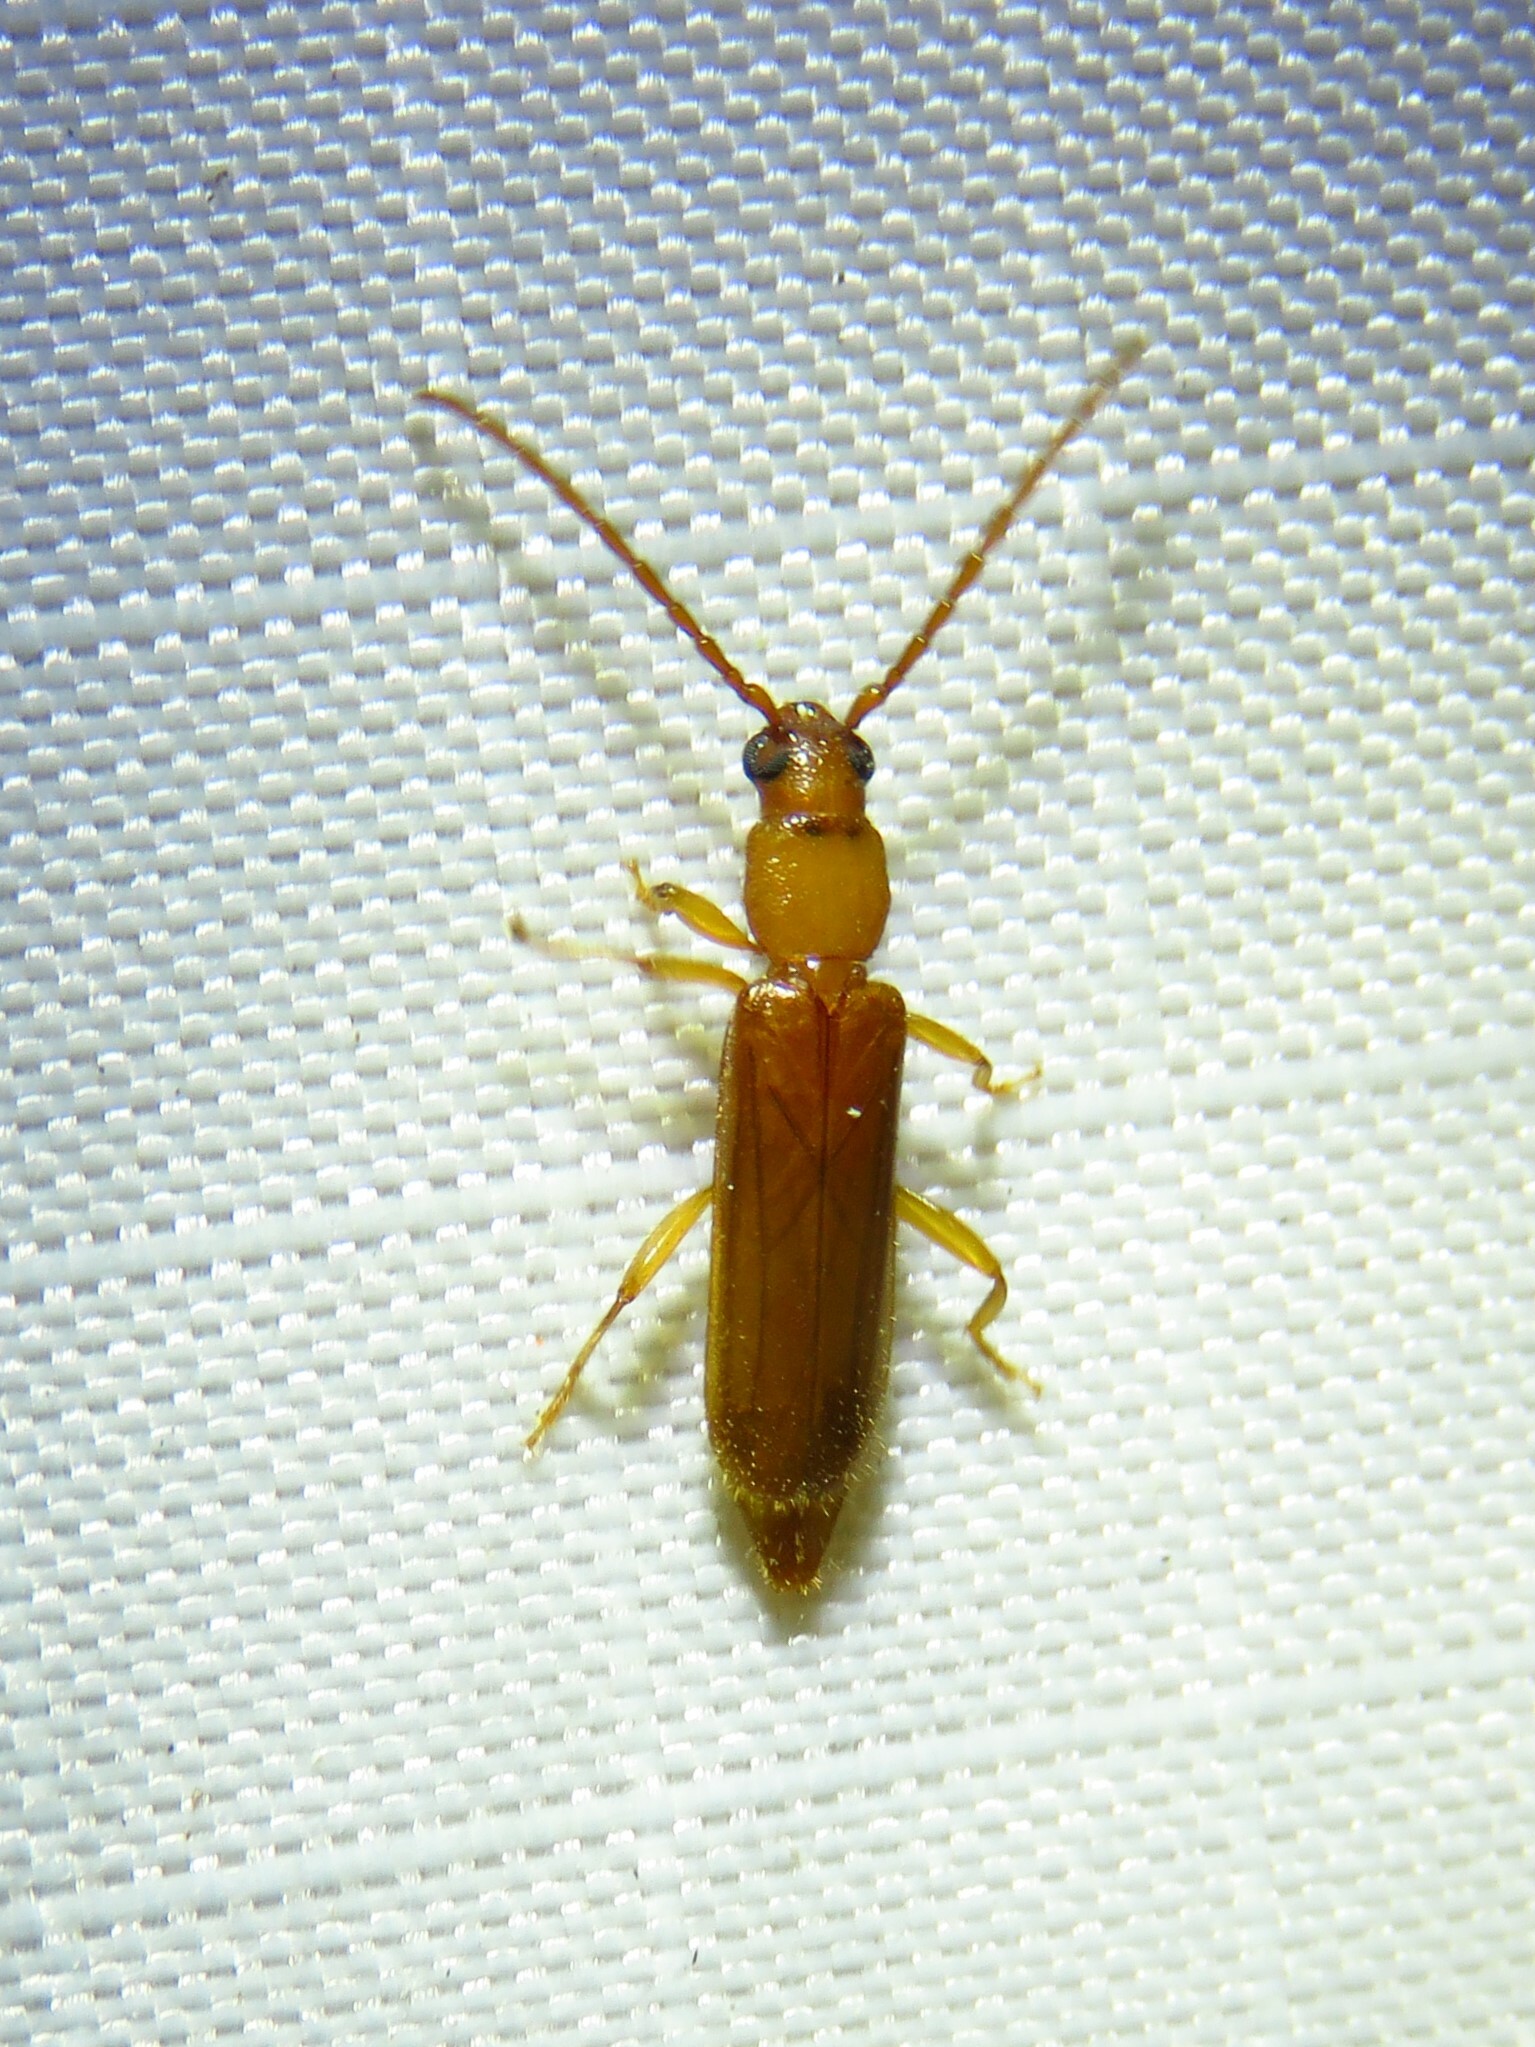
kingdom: Animalia
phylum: Arthropoda
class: Insecta
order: Coleoptera
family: Cerambycidae
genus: Smodicum
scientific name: Smodicum cucujiforme
